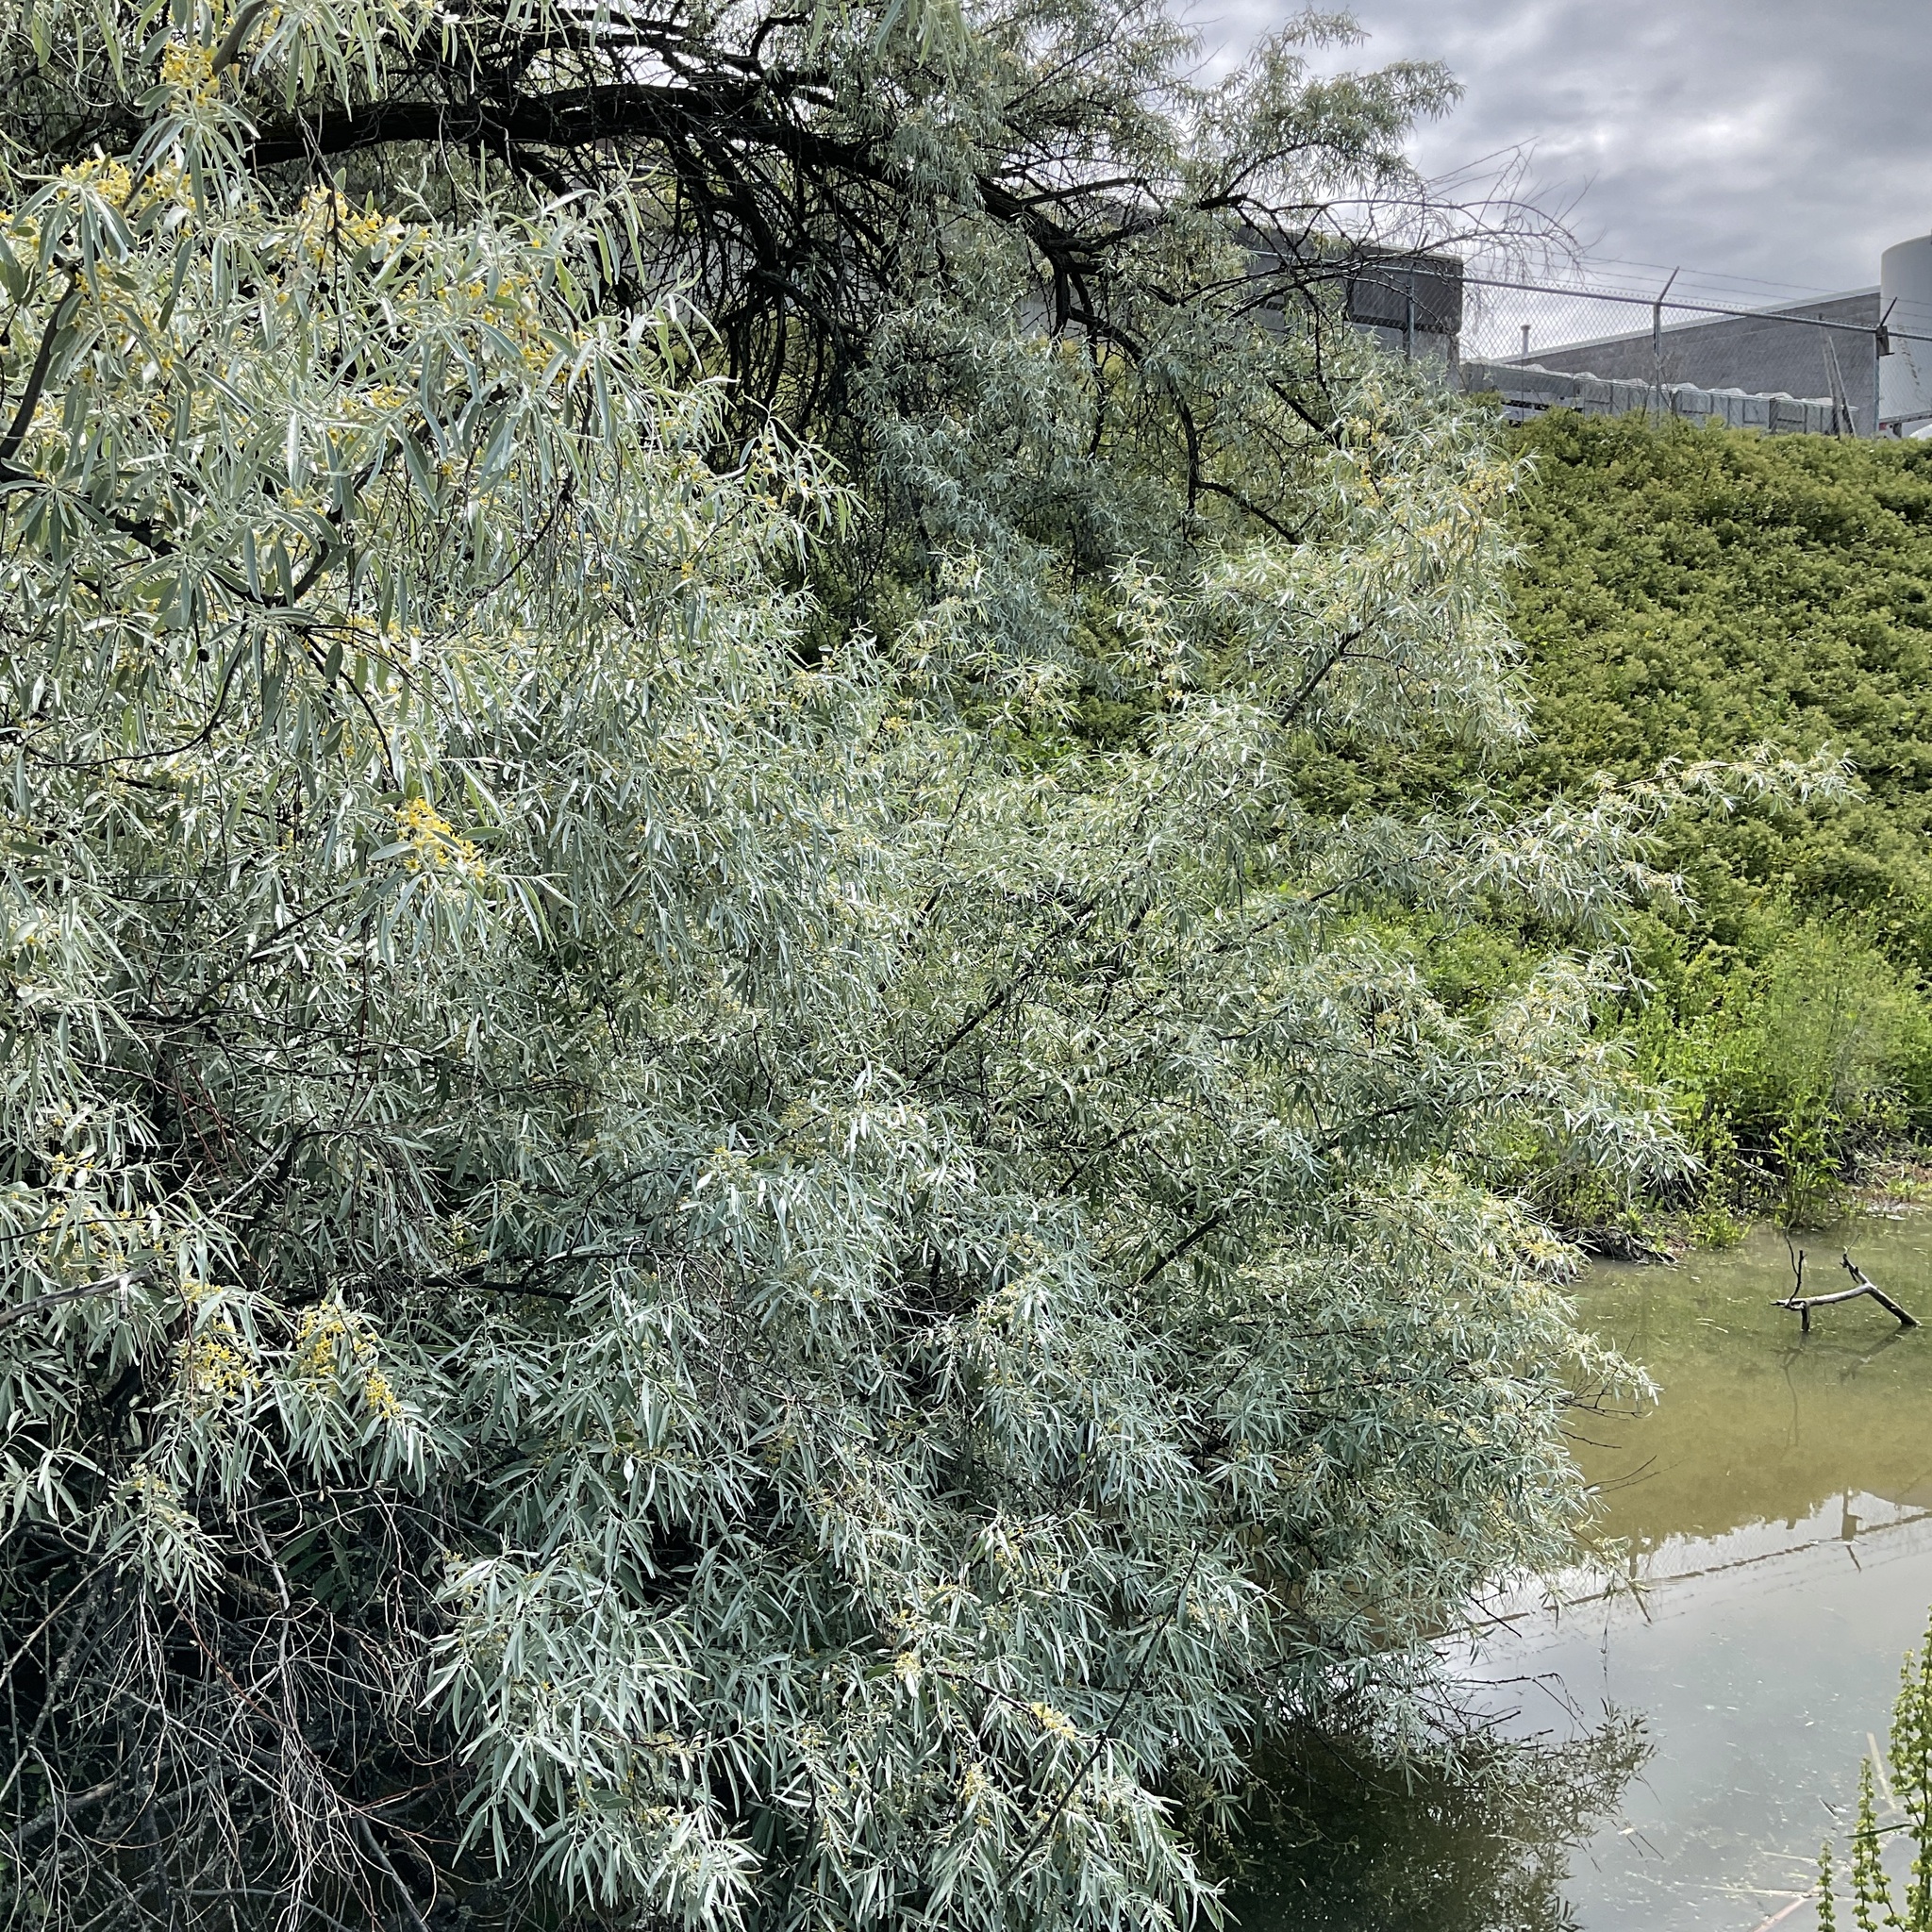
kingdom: Plantae
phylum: Tracheophyta
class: Magnoliopsida
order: Rosales
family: Elaeagnaceae
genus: Elaeagnus
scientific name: Elaeagnus angustifolia
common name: Russian olive
